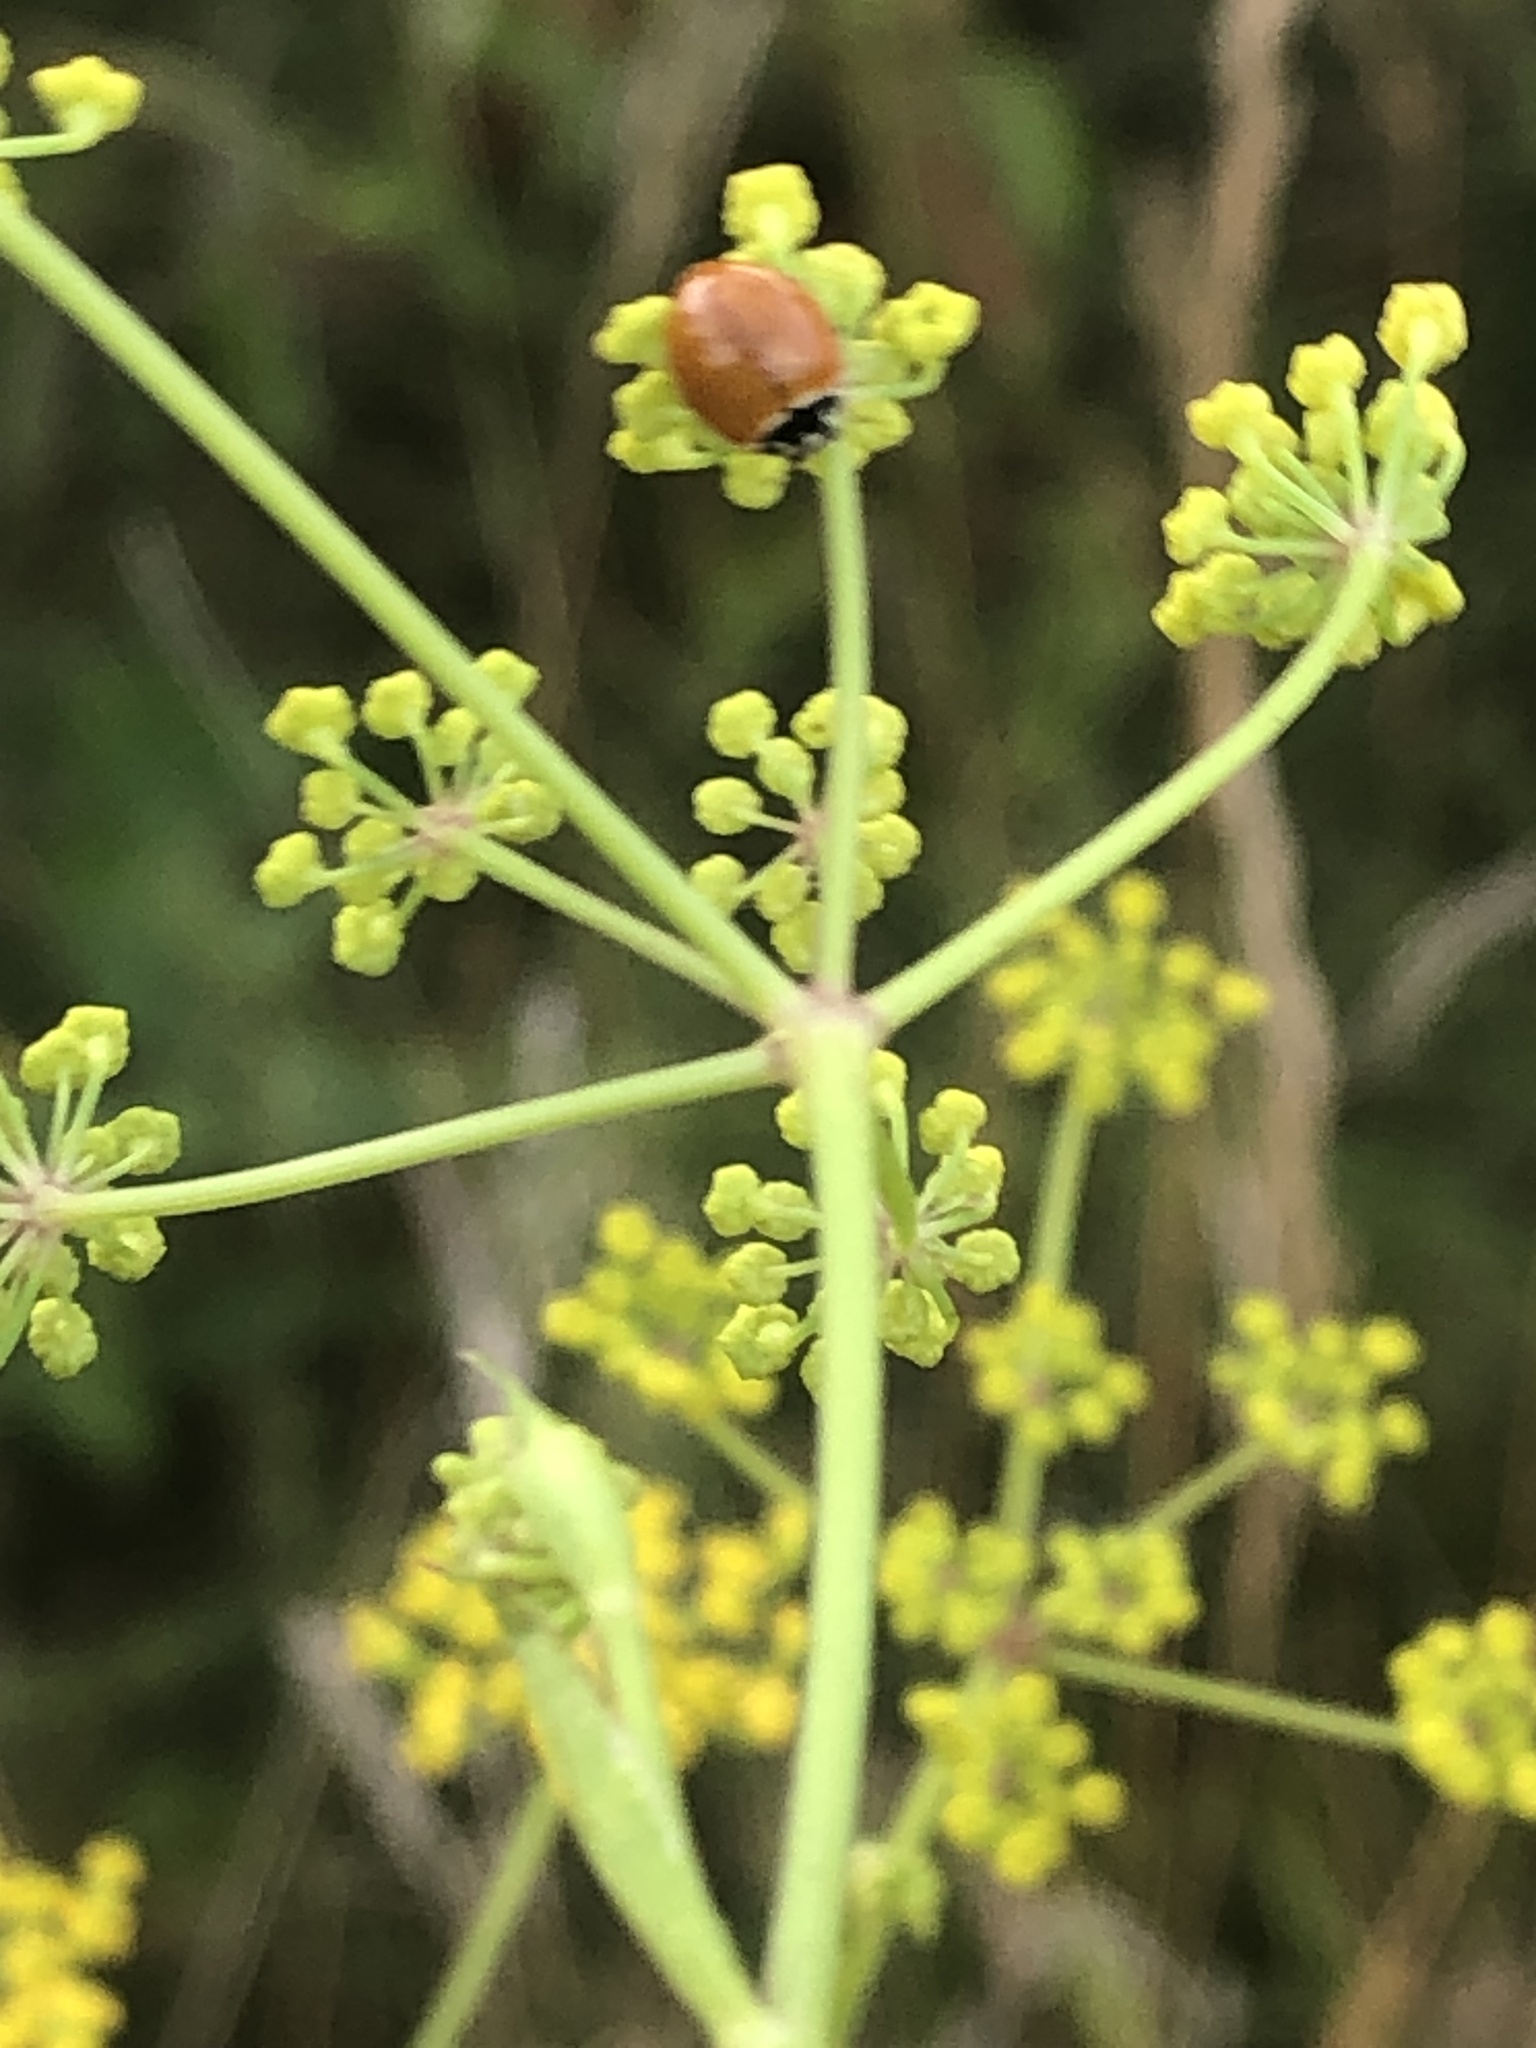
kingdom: Animalia
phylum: Arthropoda
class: Insecta
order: Coleoptera
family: Coccinellidae
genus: Cycloneda
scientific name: Cycloneda munda
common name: Polished lady beetle
